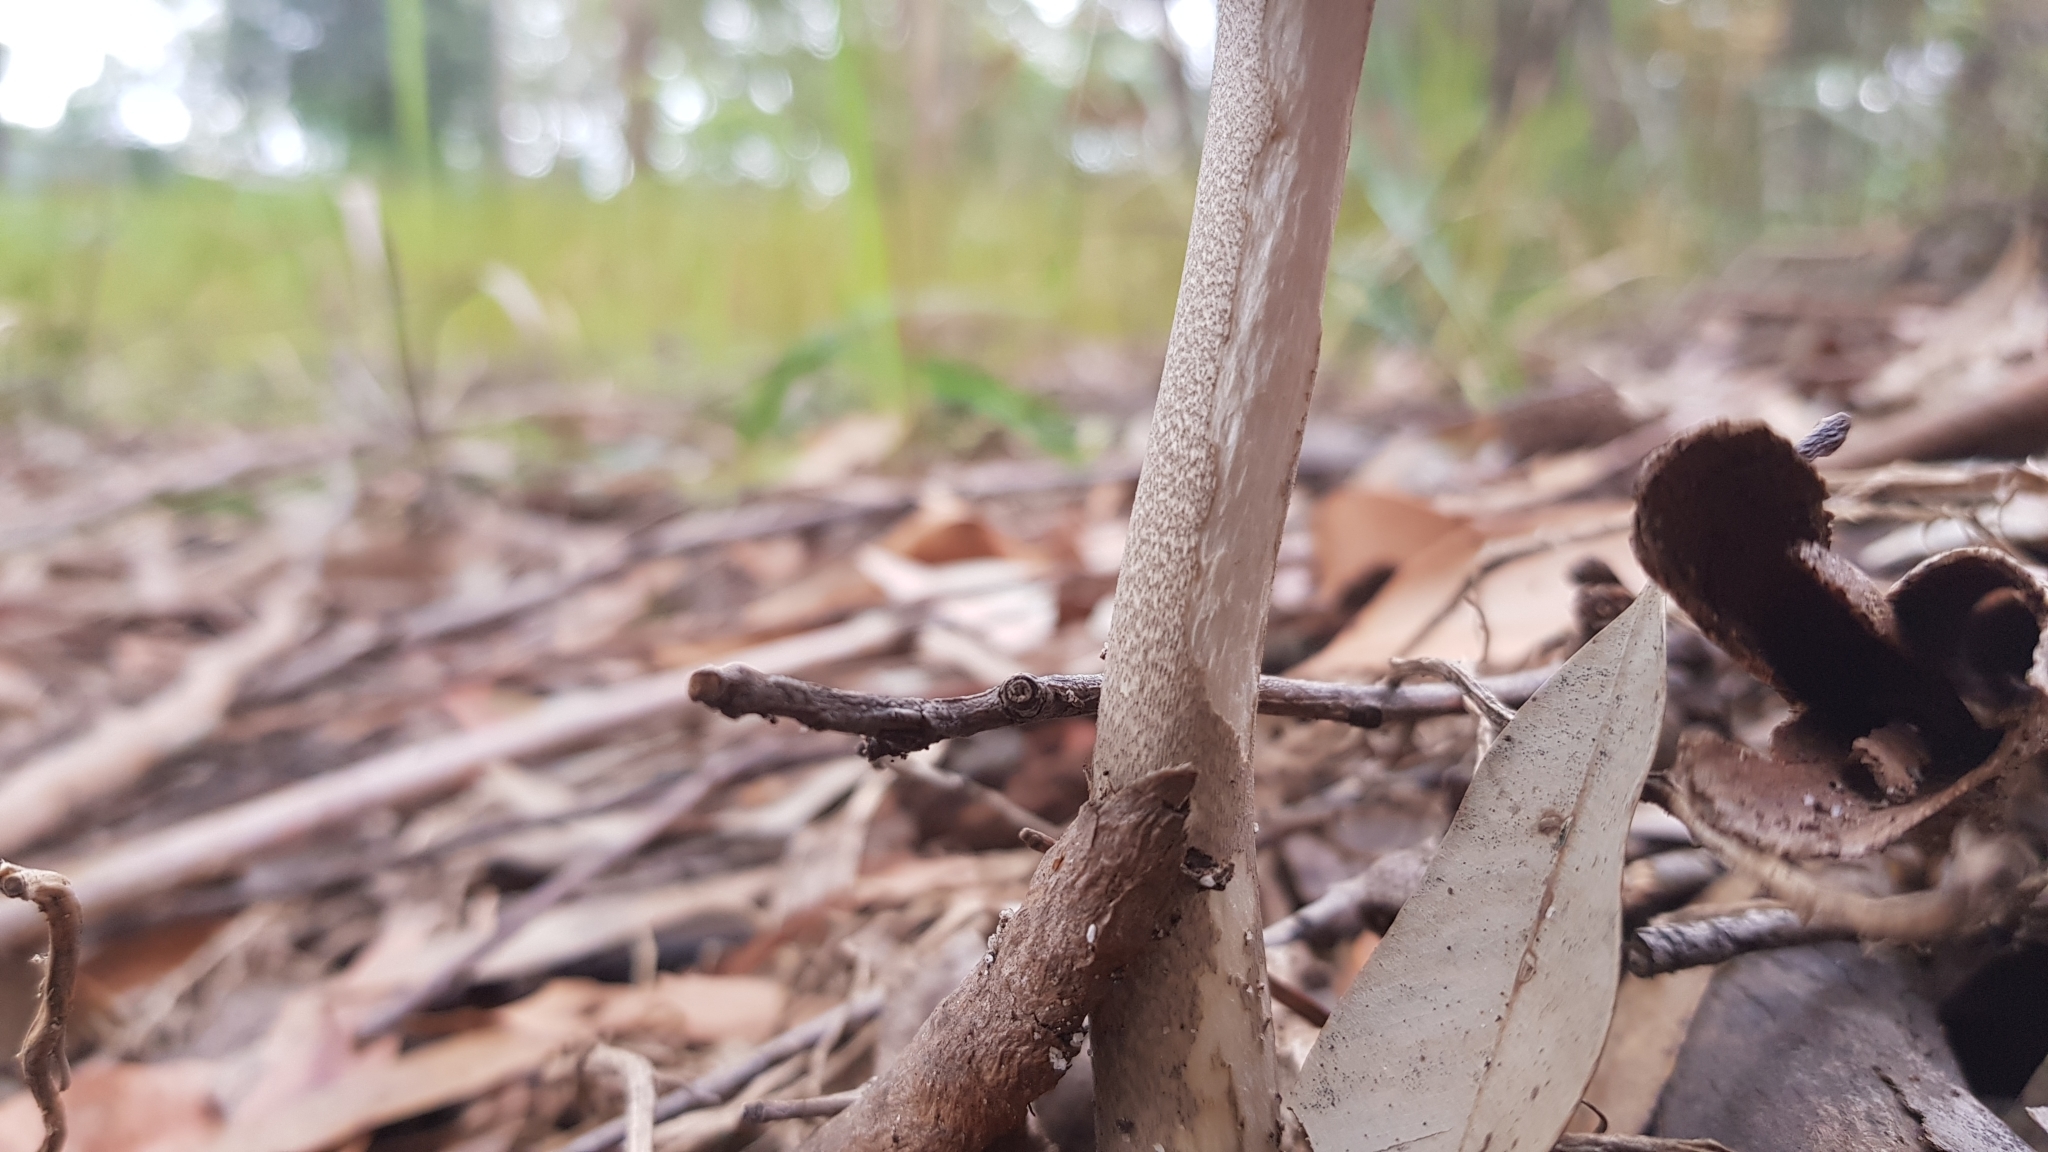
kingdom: Fungi
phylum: Basidiomycota
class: Agaricomycetes
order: Agaricales
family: Amanitaceae
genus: Amanita
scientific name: Amanita cheelii
